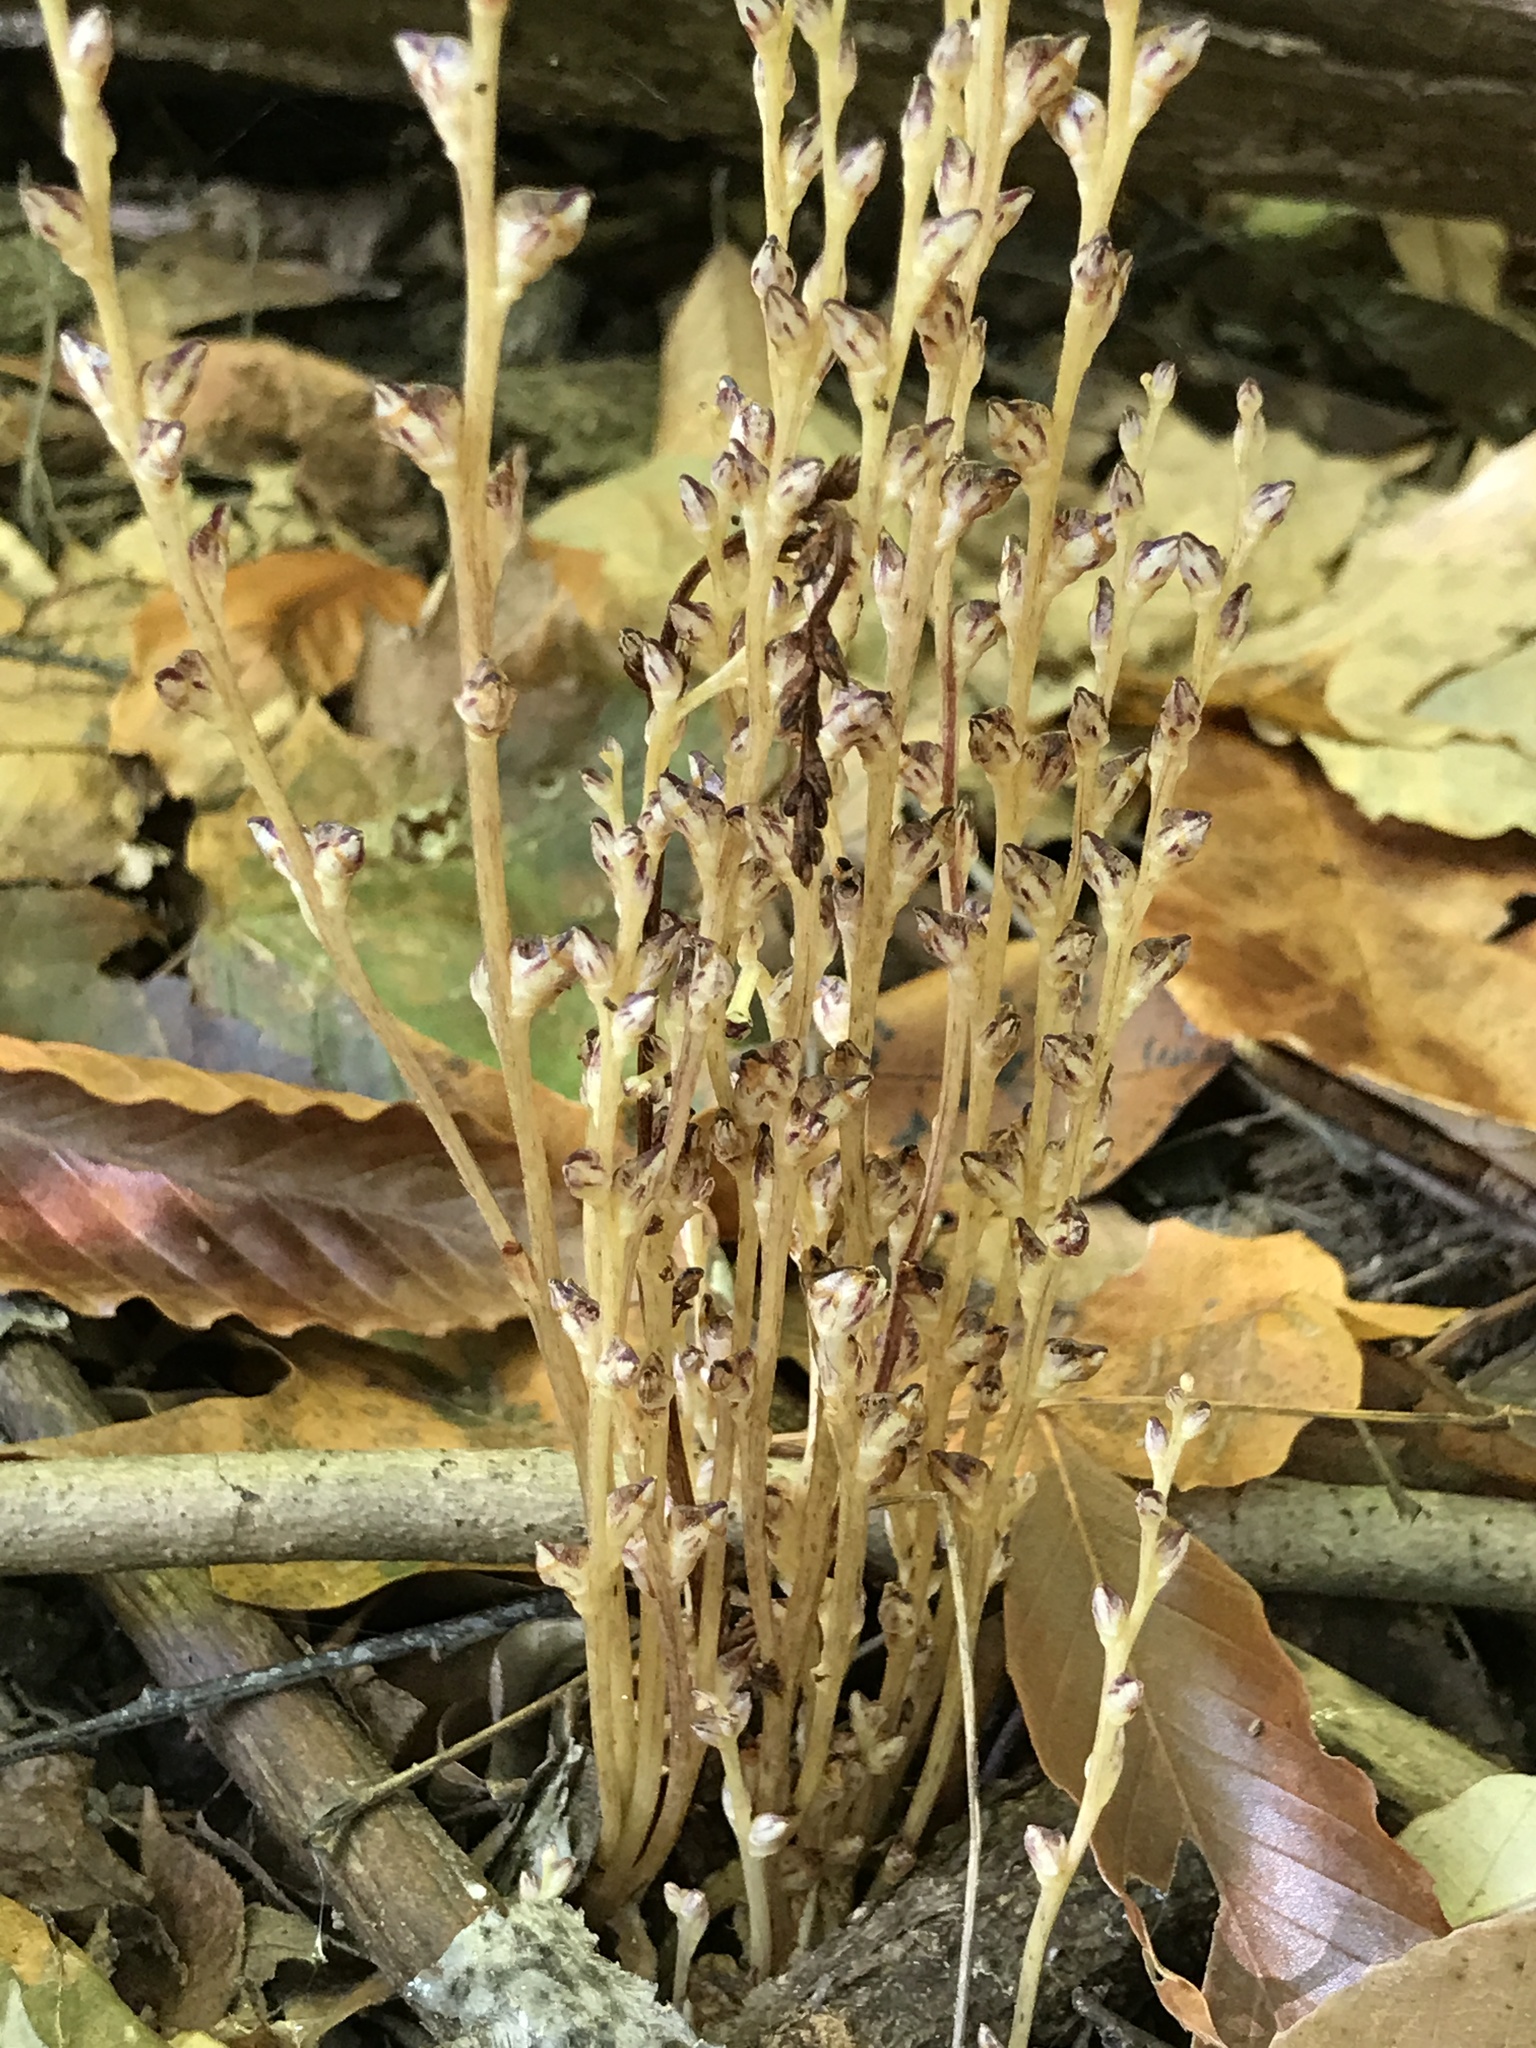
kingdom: Plantae
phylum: Tracheophyta
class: Magnoliopsida
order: Lamiales
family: Orobanchaceae
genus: Epifagus
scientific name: Epifagus virginiana
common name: Beechdrops
